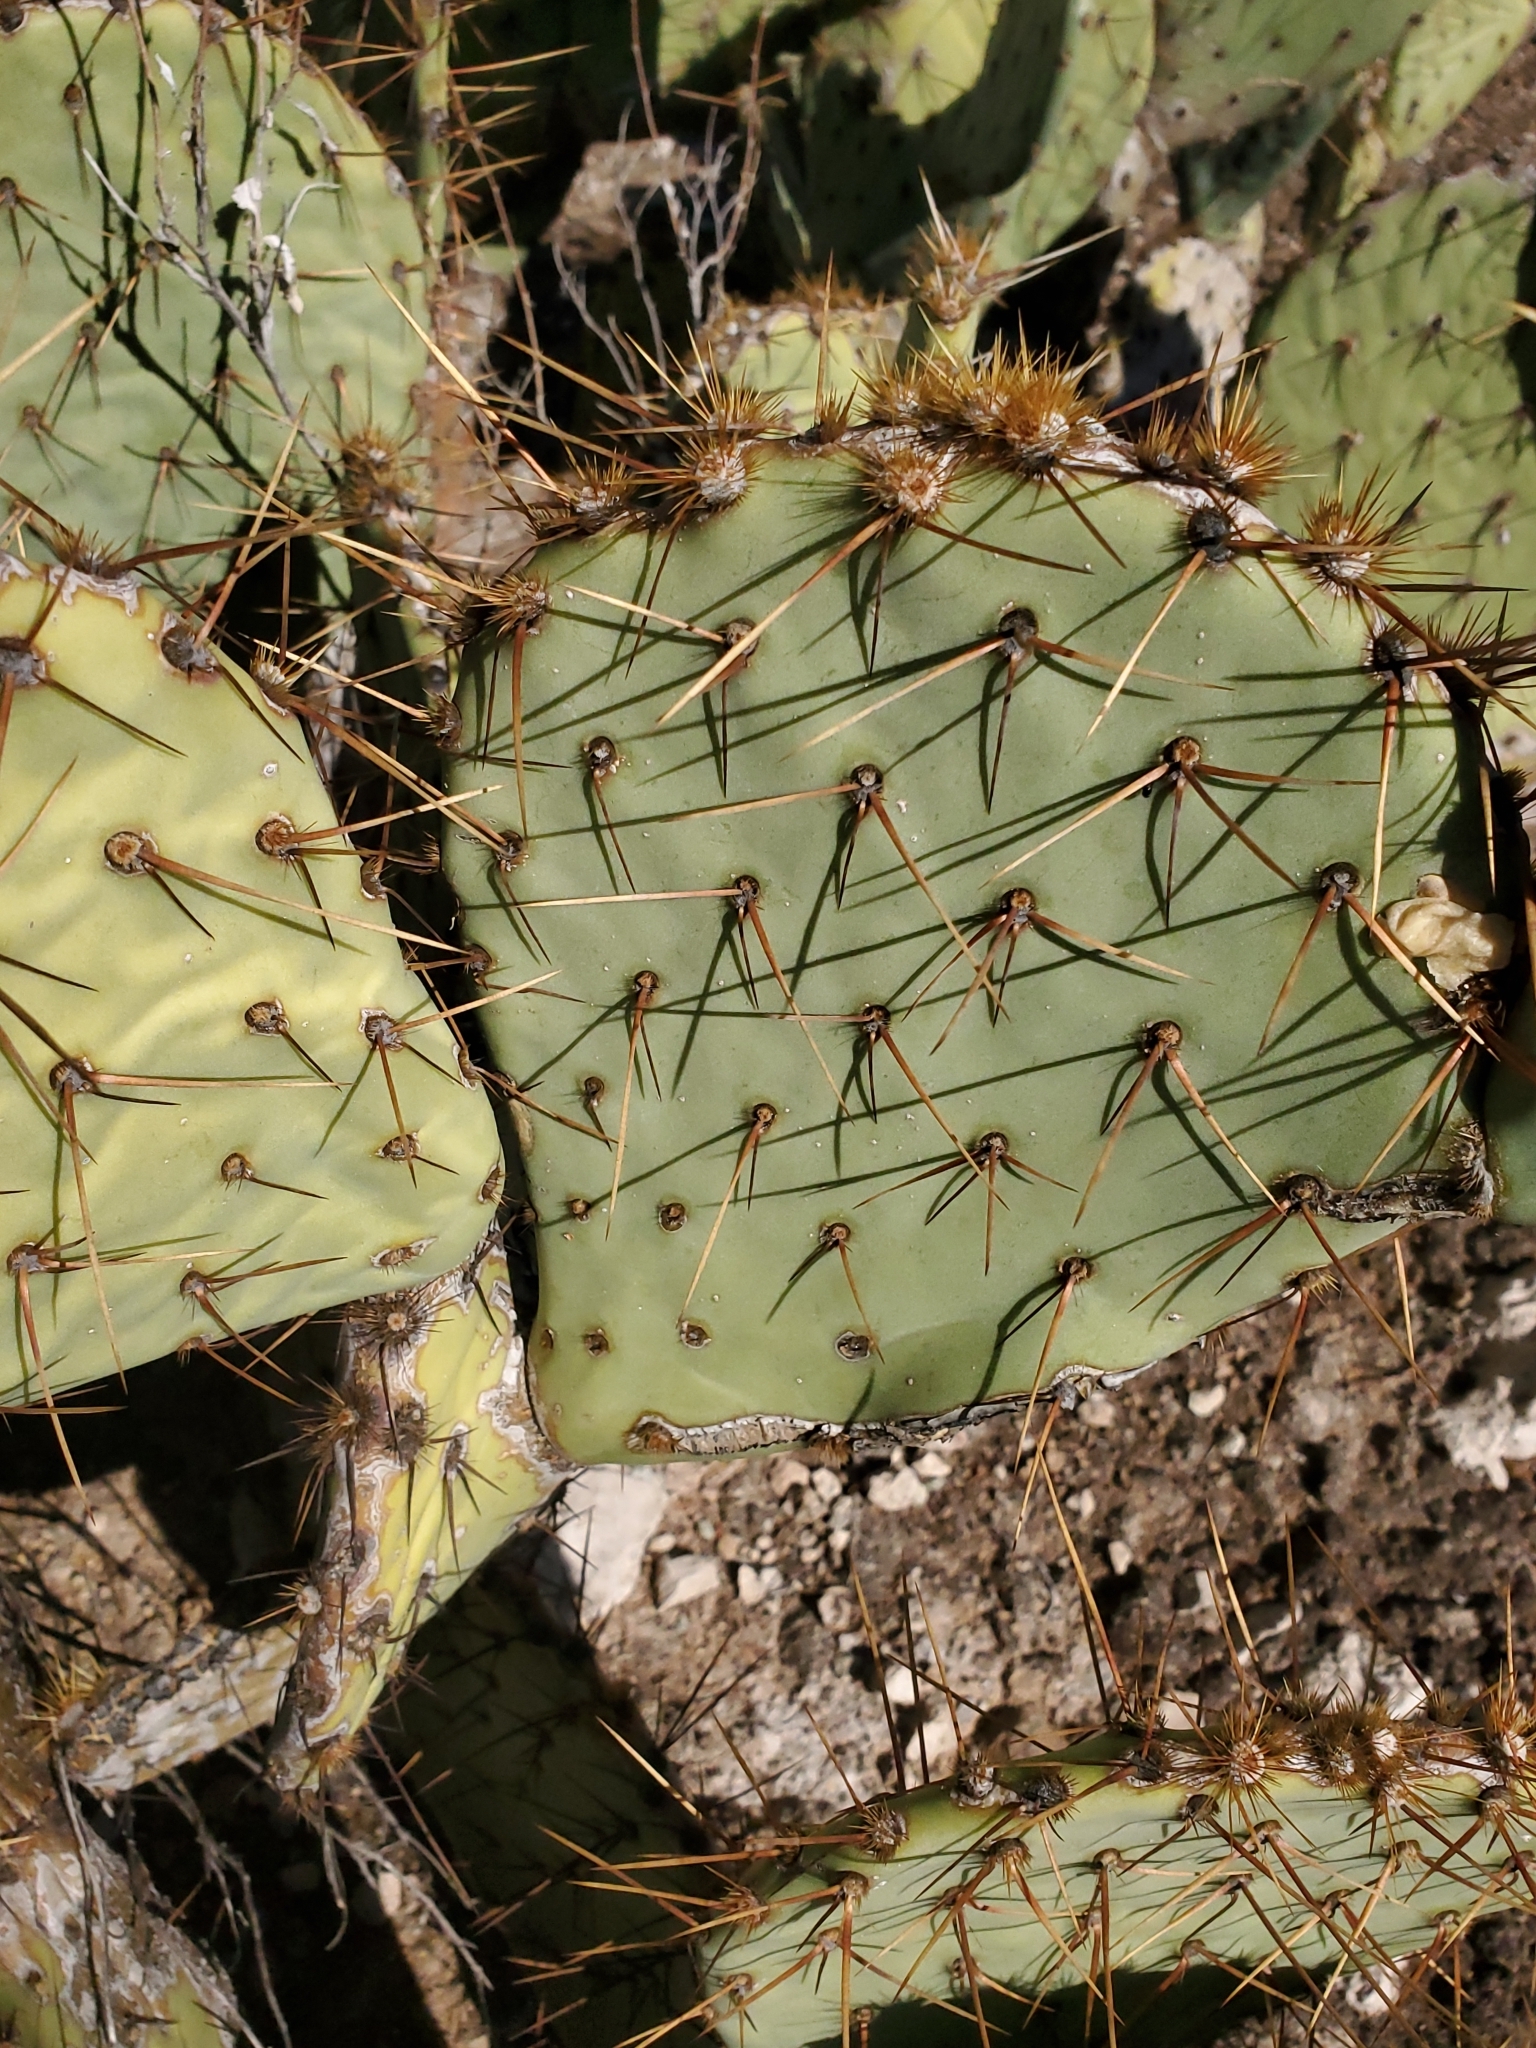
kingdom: Plantae
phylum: Tracheophyta
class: Magnoliopsida
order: Caryophyllales
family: Cactaceae
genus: Opuntia
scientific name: Opuntia engelmannii
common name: Cactus-apple
